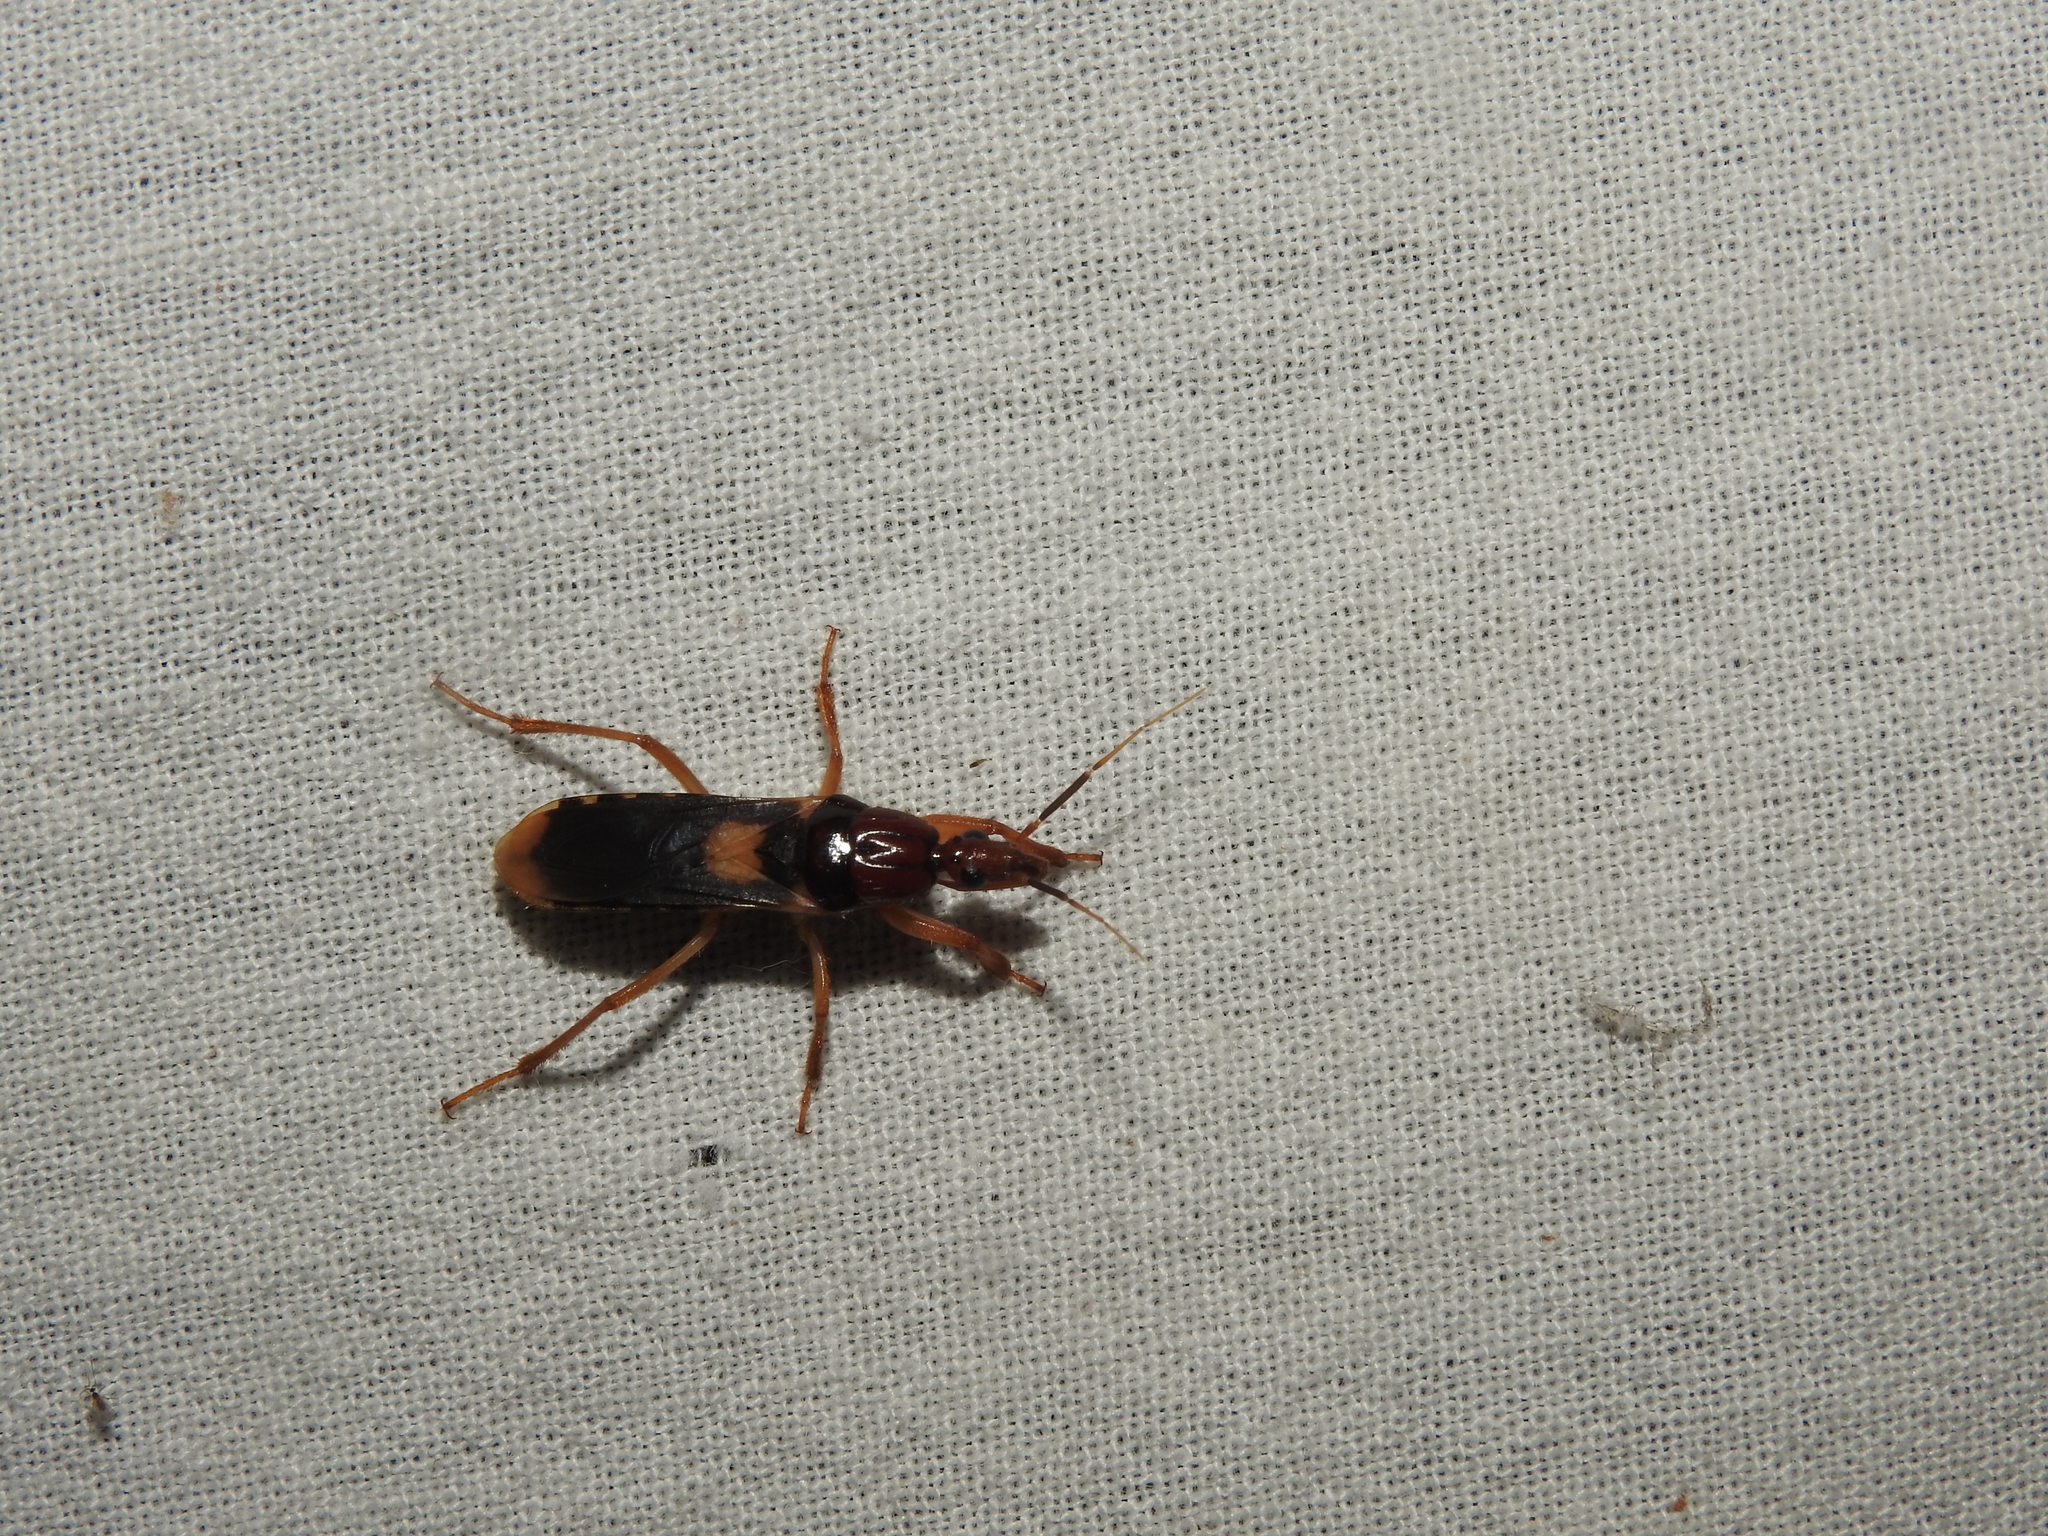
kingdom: Animalia
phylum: Arthropoda
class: Insecta
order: Hemiptera
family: Reduviidae
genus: Sirthenea
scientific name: Sirthenea flavipes
